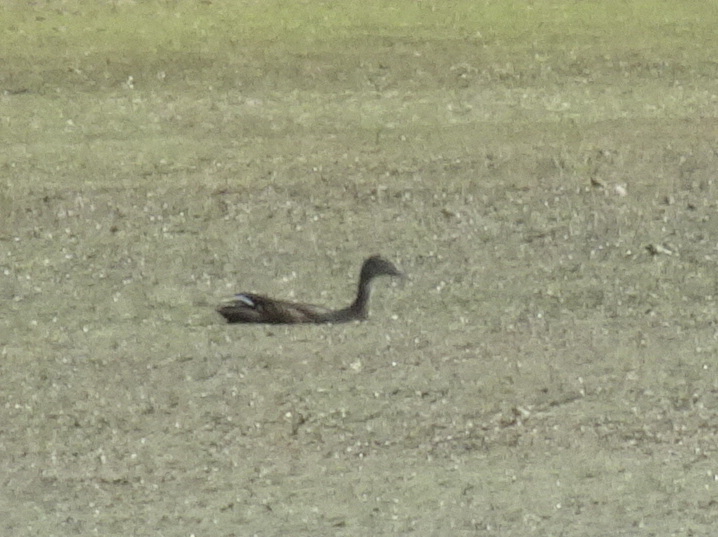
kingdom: Animalia
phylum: Chordata
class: Aves
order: Anseriformes
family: Anatidae
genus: Aix
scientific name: Aix sponsa
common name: Wood duck
